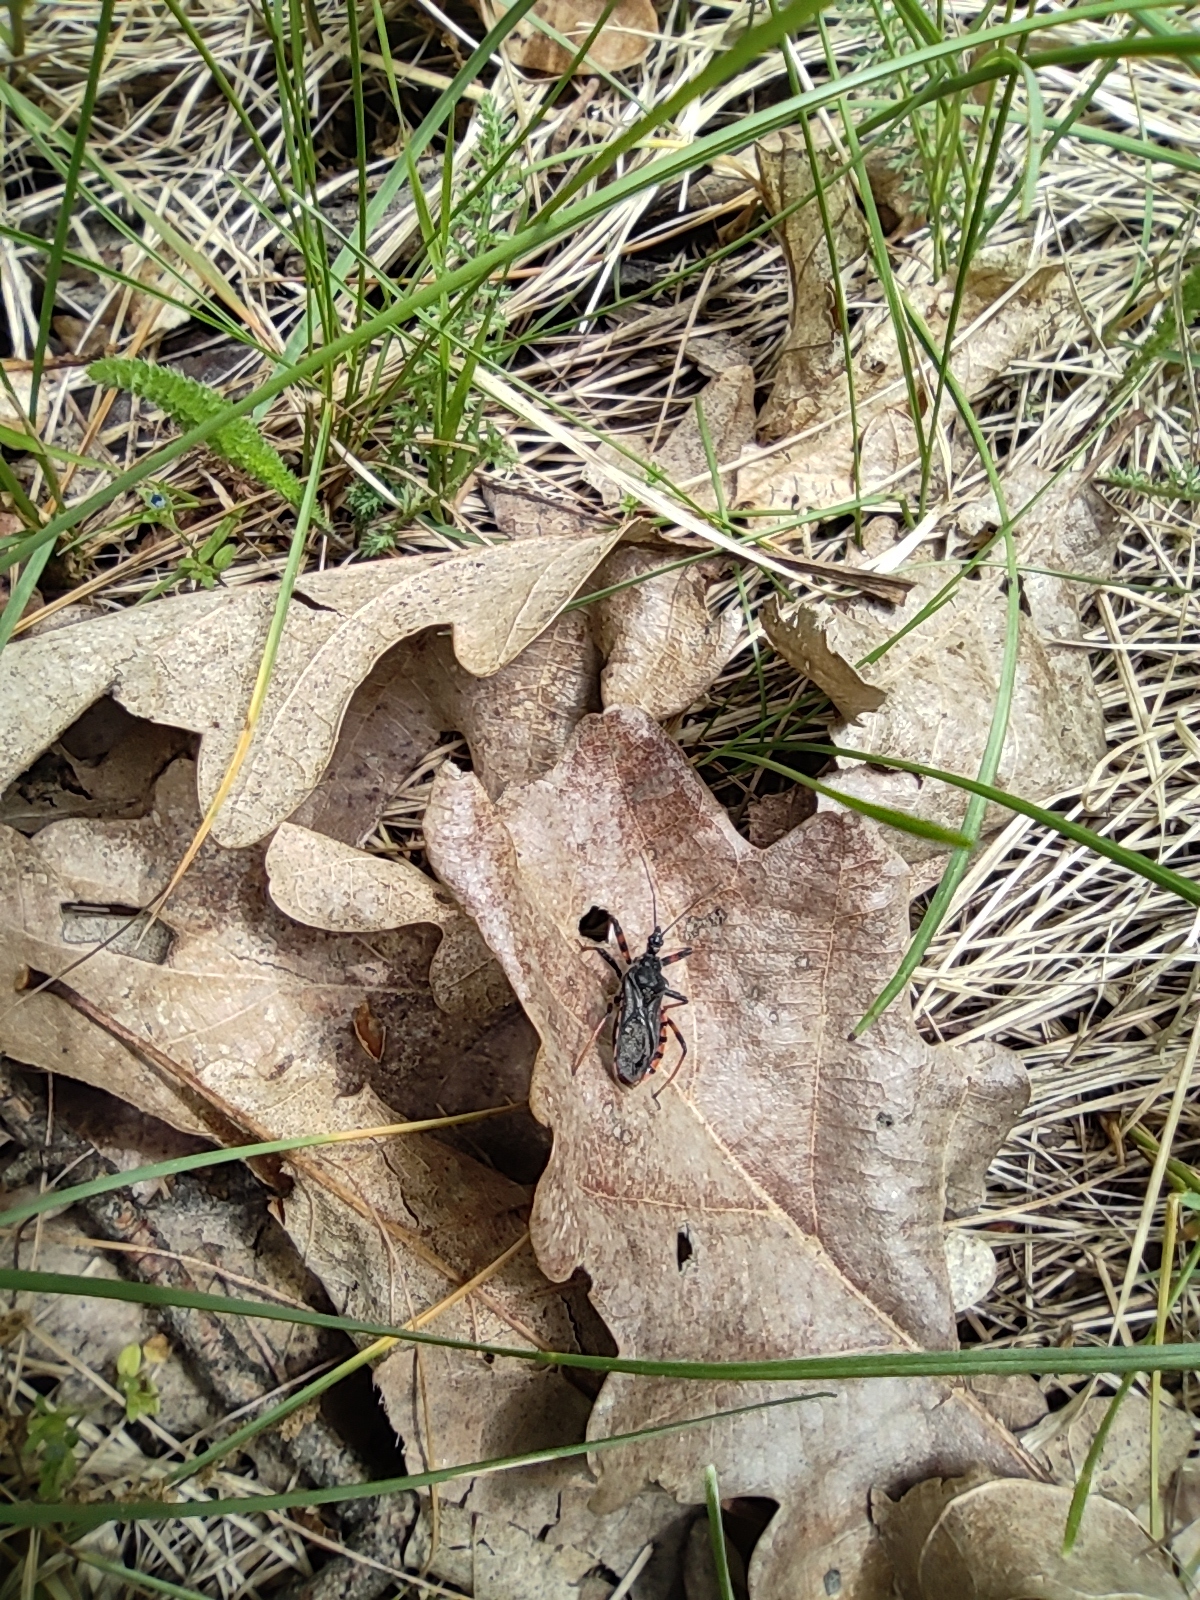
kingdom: Animalia
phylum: Arthropoda
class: Insecta
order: Hemiptera
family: Reduviidae
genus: Rhynocoris
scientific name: Rhynocoris annulatus
